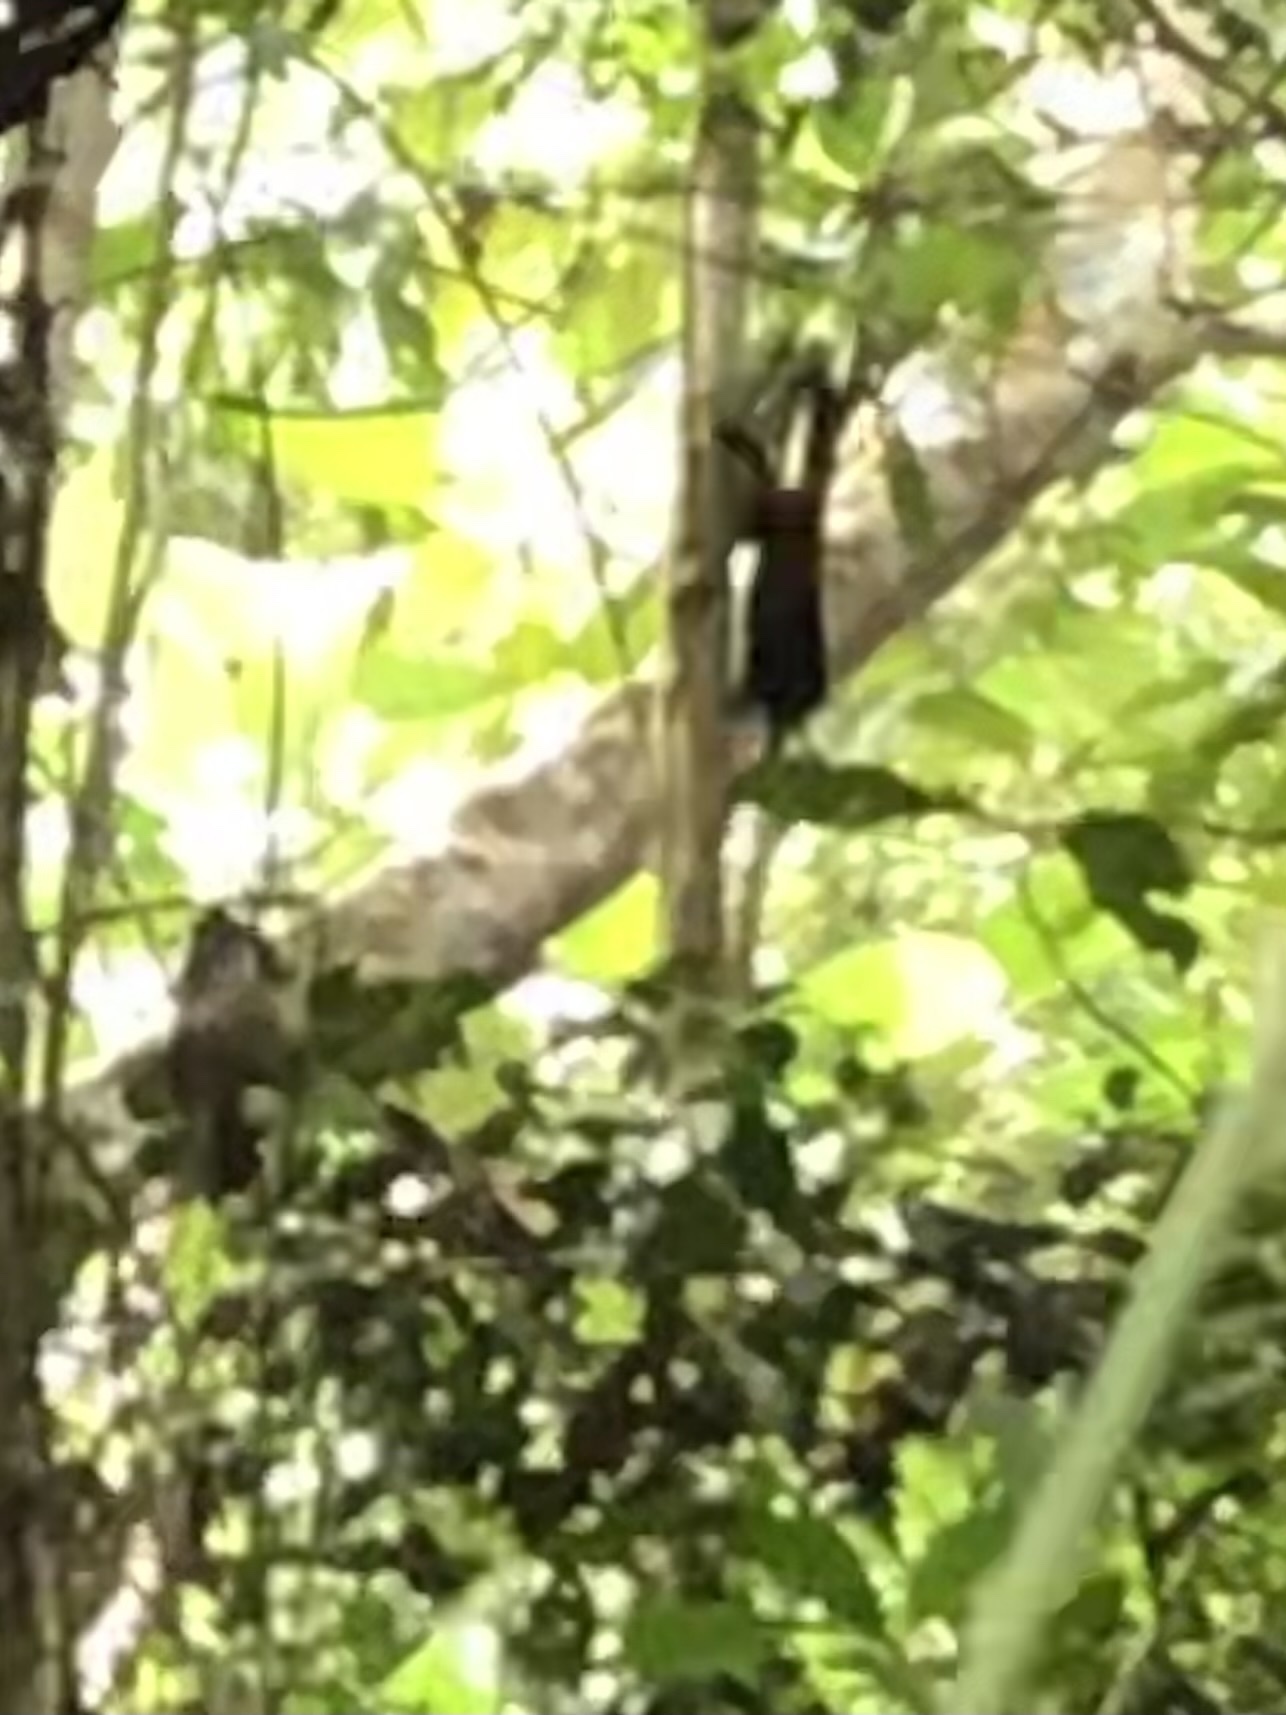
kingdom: Animalia
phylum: Chordata
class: Mammalia
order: Primates
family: Callitrichidae
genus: Leontocebus
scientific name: Leontocebus weddelli
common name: Weddell's saddle-back tamarin
